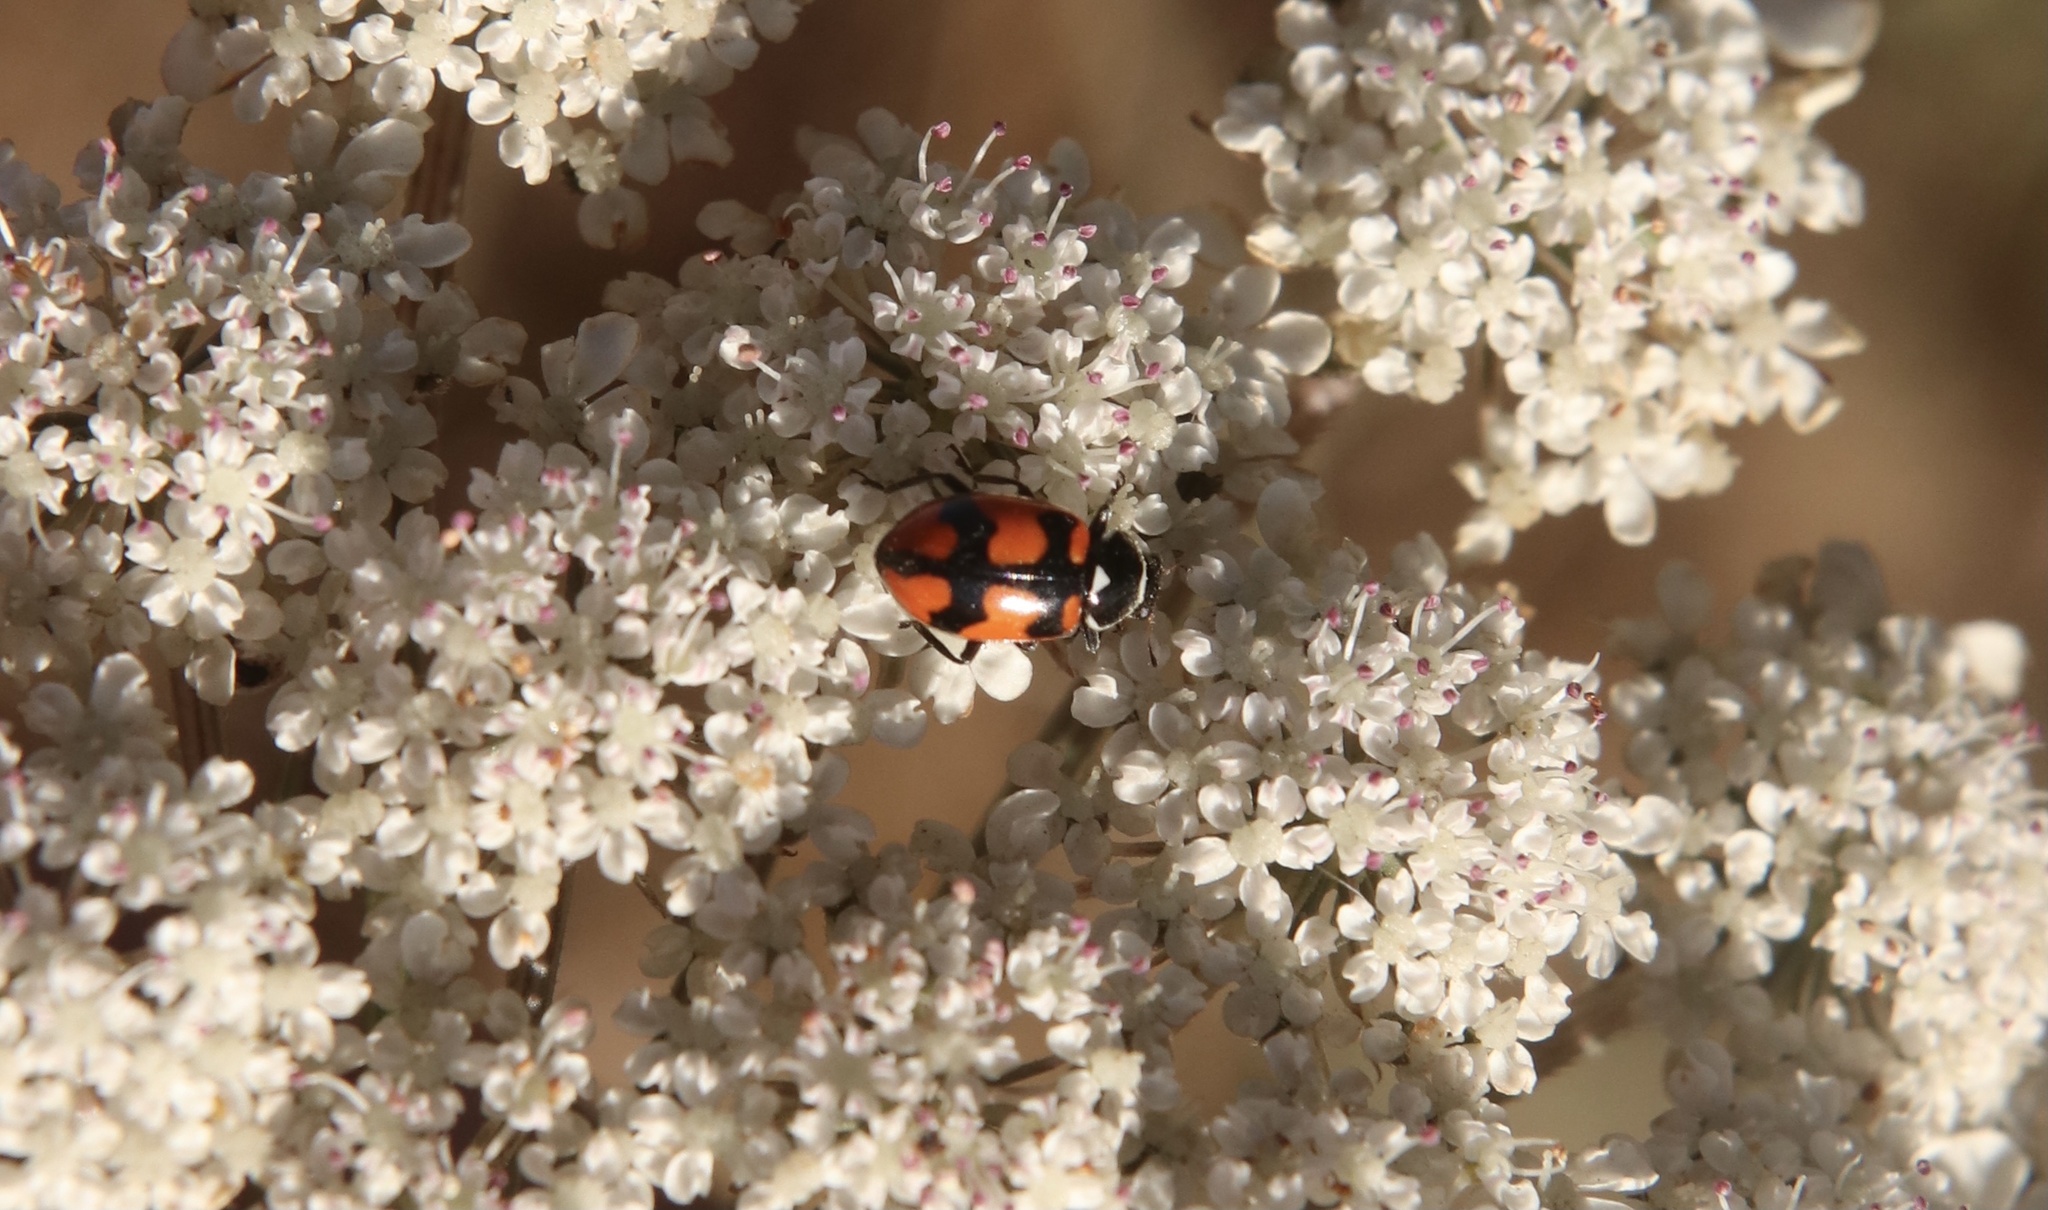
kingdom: Animalia
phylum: Arthropoda
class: Insecta
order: Coleoptera
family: Coccinellidae
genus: Eriopis
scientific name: Eriopis eschscholtzii
